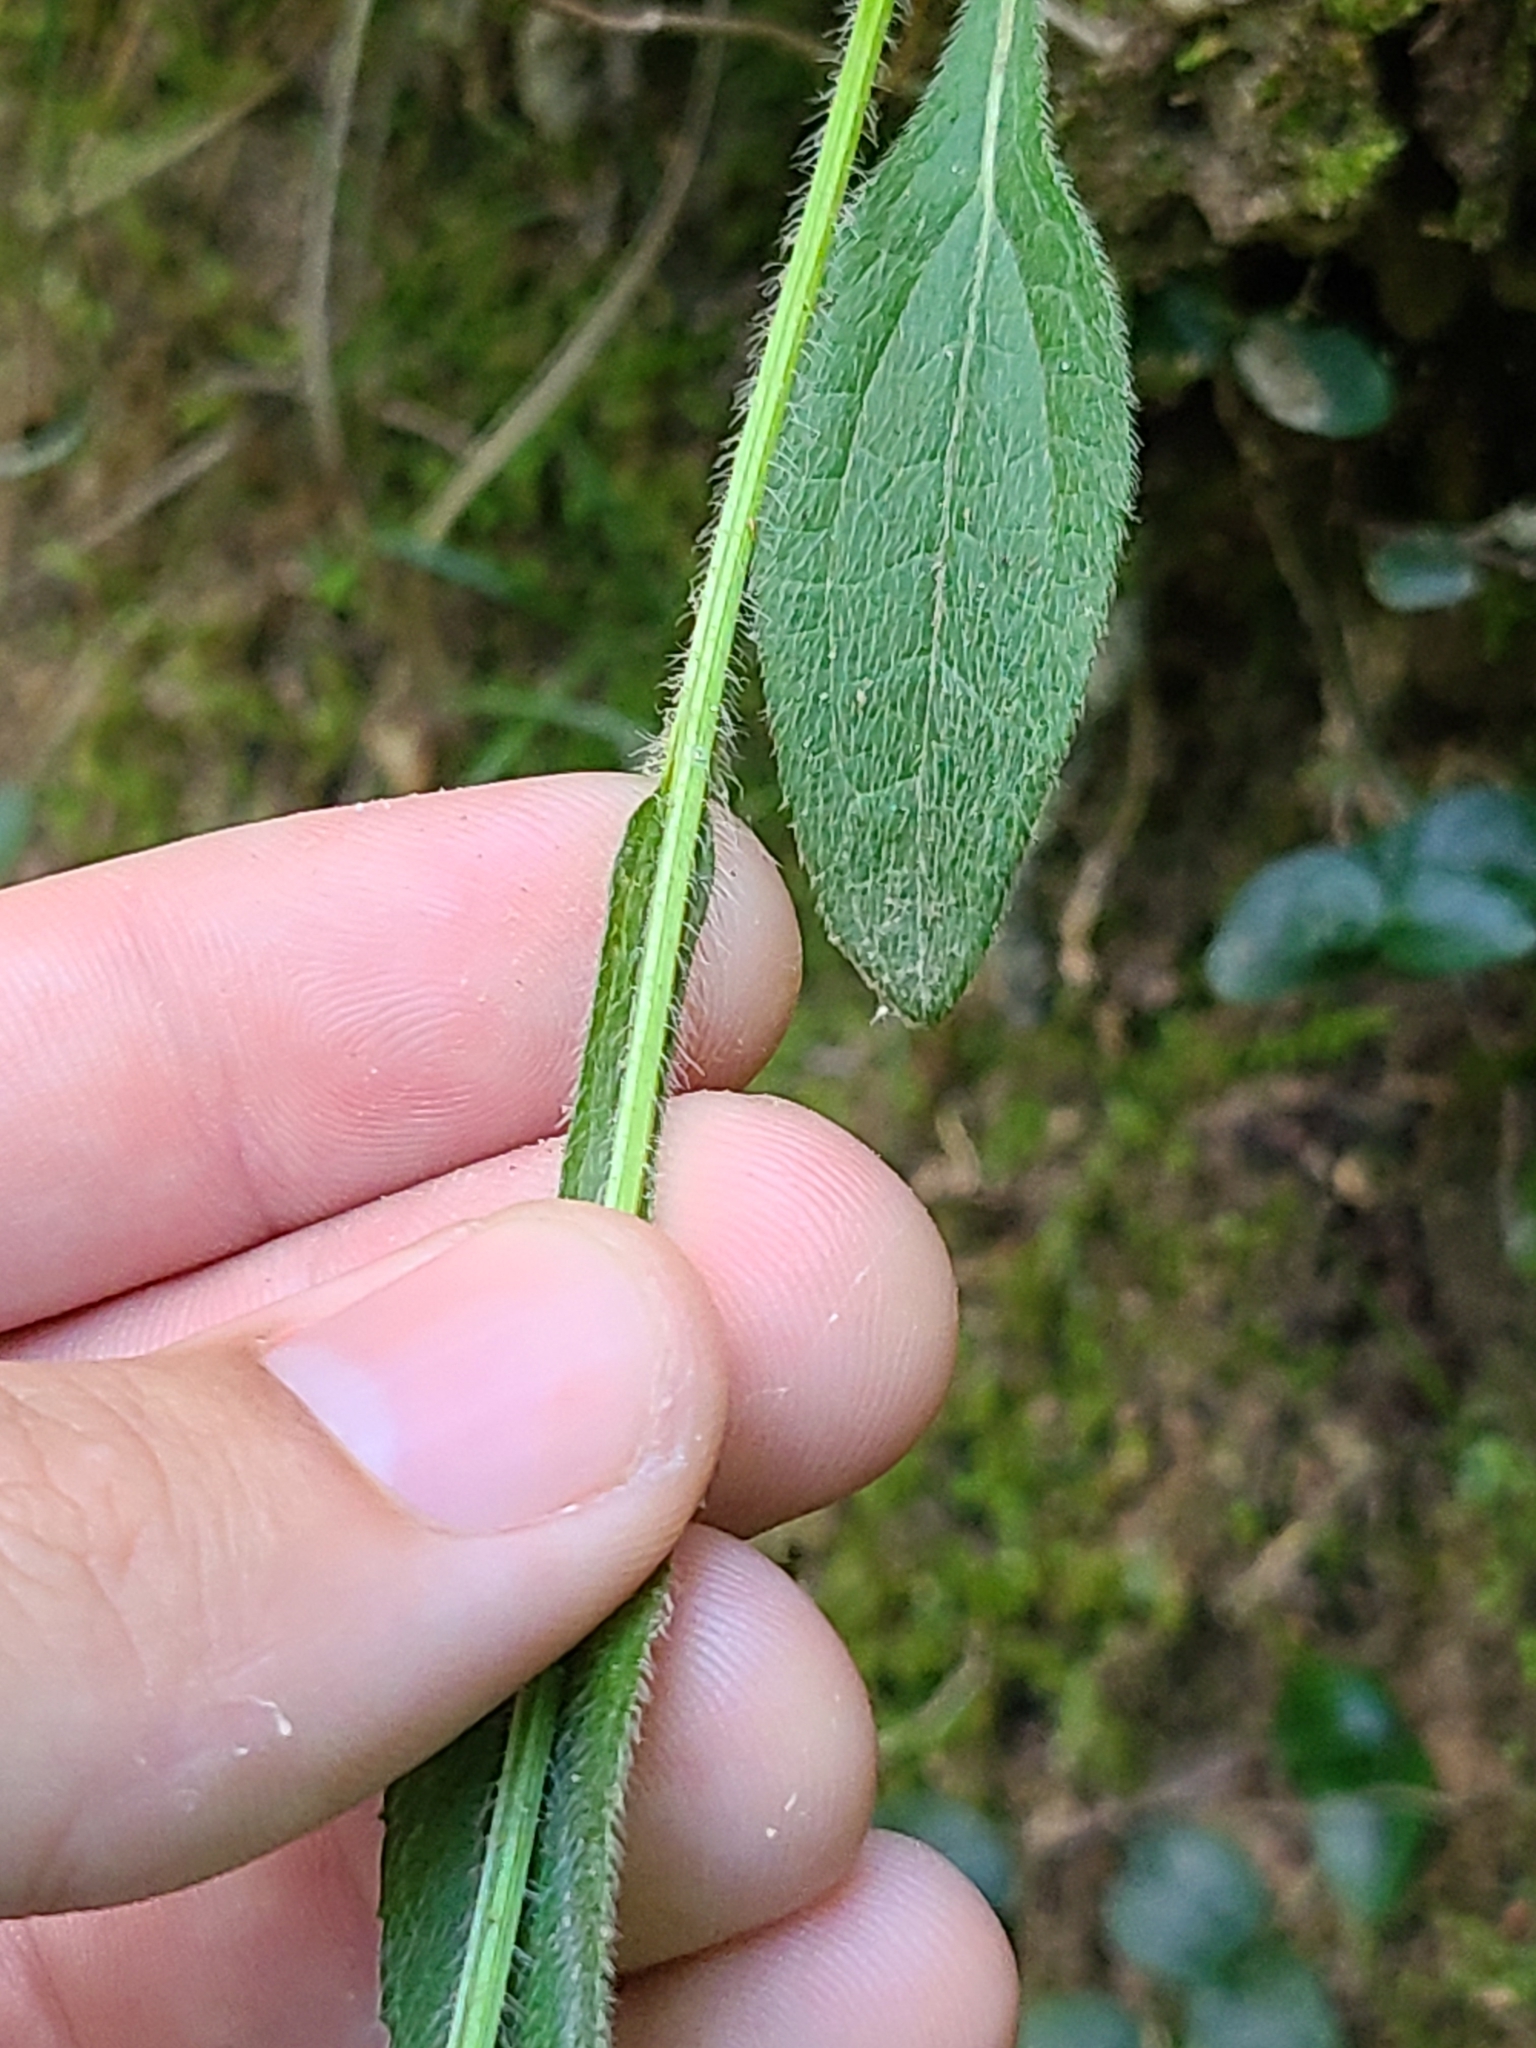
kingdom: Plantae
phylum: Tracheophyta
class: Magnoliopsida
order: Asterales
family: Asteraceae
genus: Rudbeckia
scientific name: Rudbeckia hirta
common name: Black-eyed-susan
